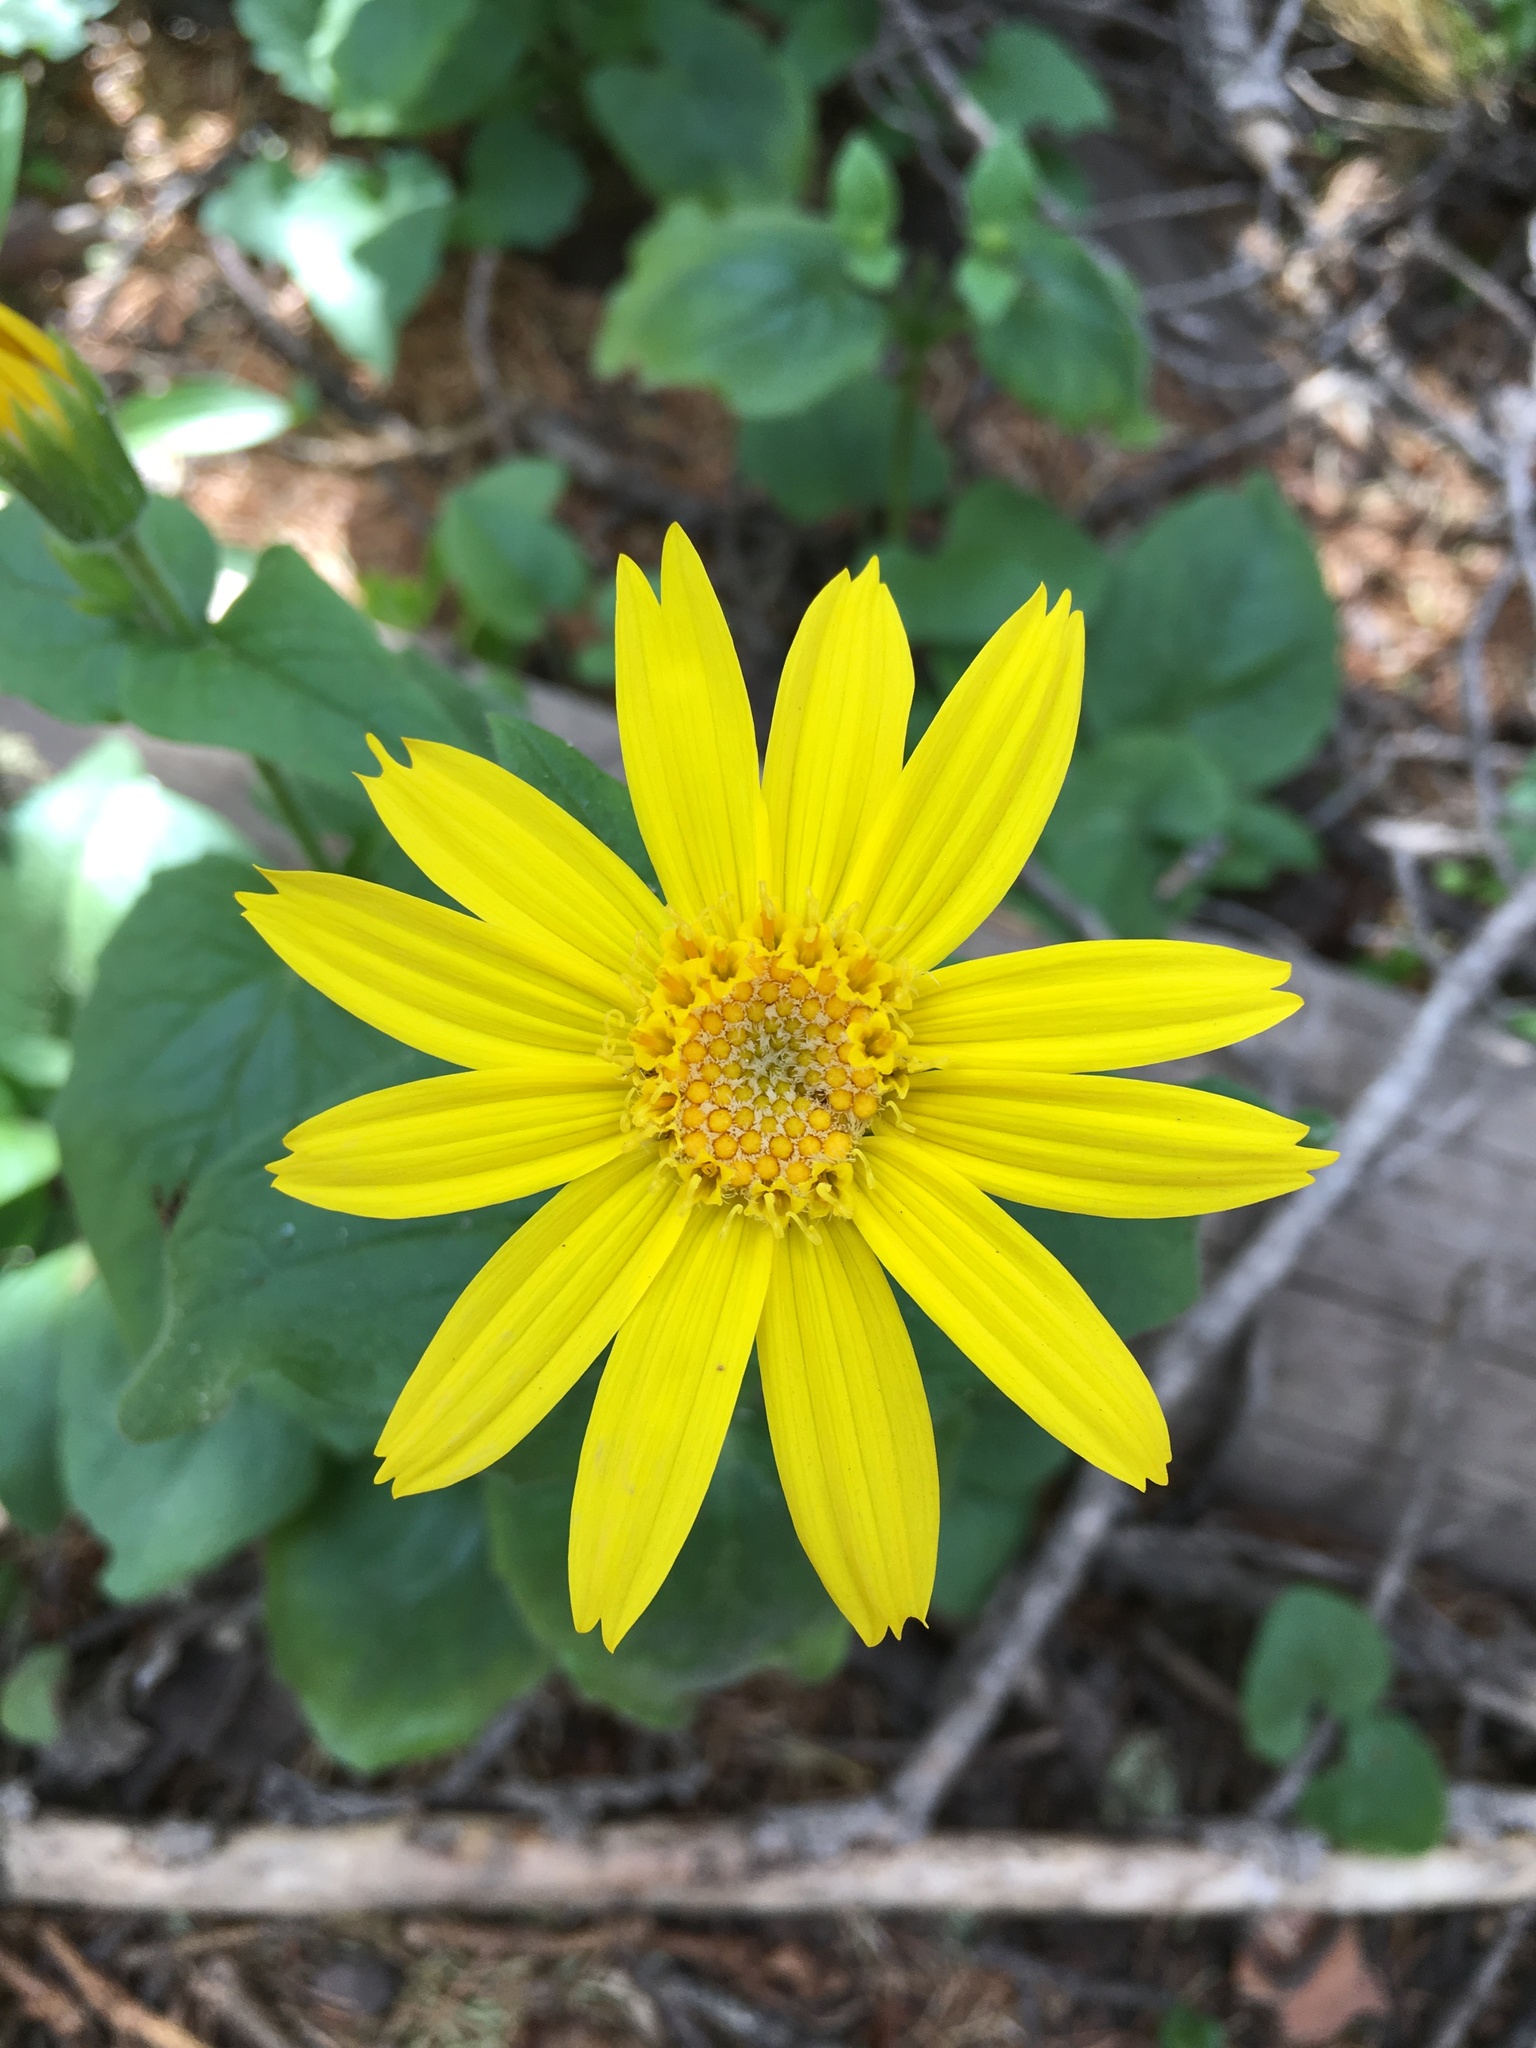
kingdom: Plantae
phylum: Tracheophyta
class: Magnoliopsida
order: Asterales
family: Asteraceae
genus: Arnica
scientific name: Arnica cordifolia
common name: Heart-leaf arnica
